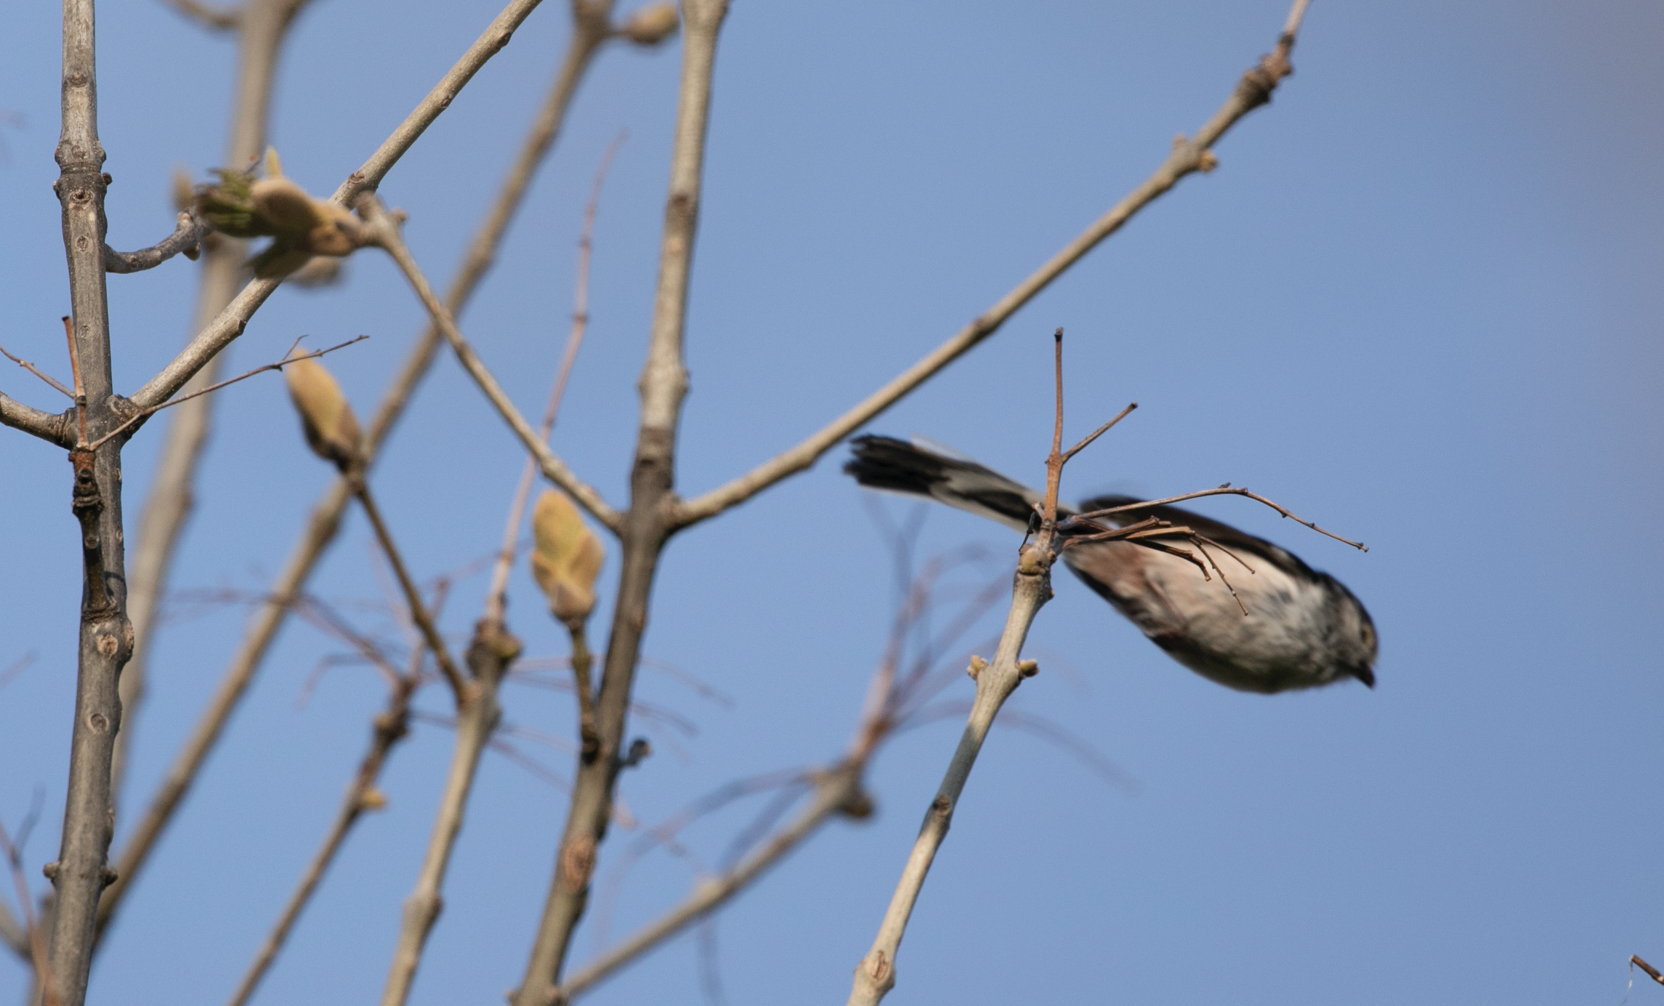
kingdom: Animalia
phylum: Chordata
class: Aves
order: Passeriformes
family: Aegithalidae
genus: Aegithalos
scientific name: Aegithalos caudatus
